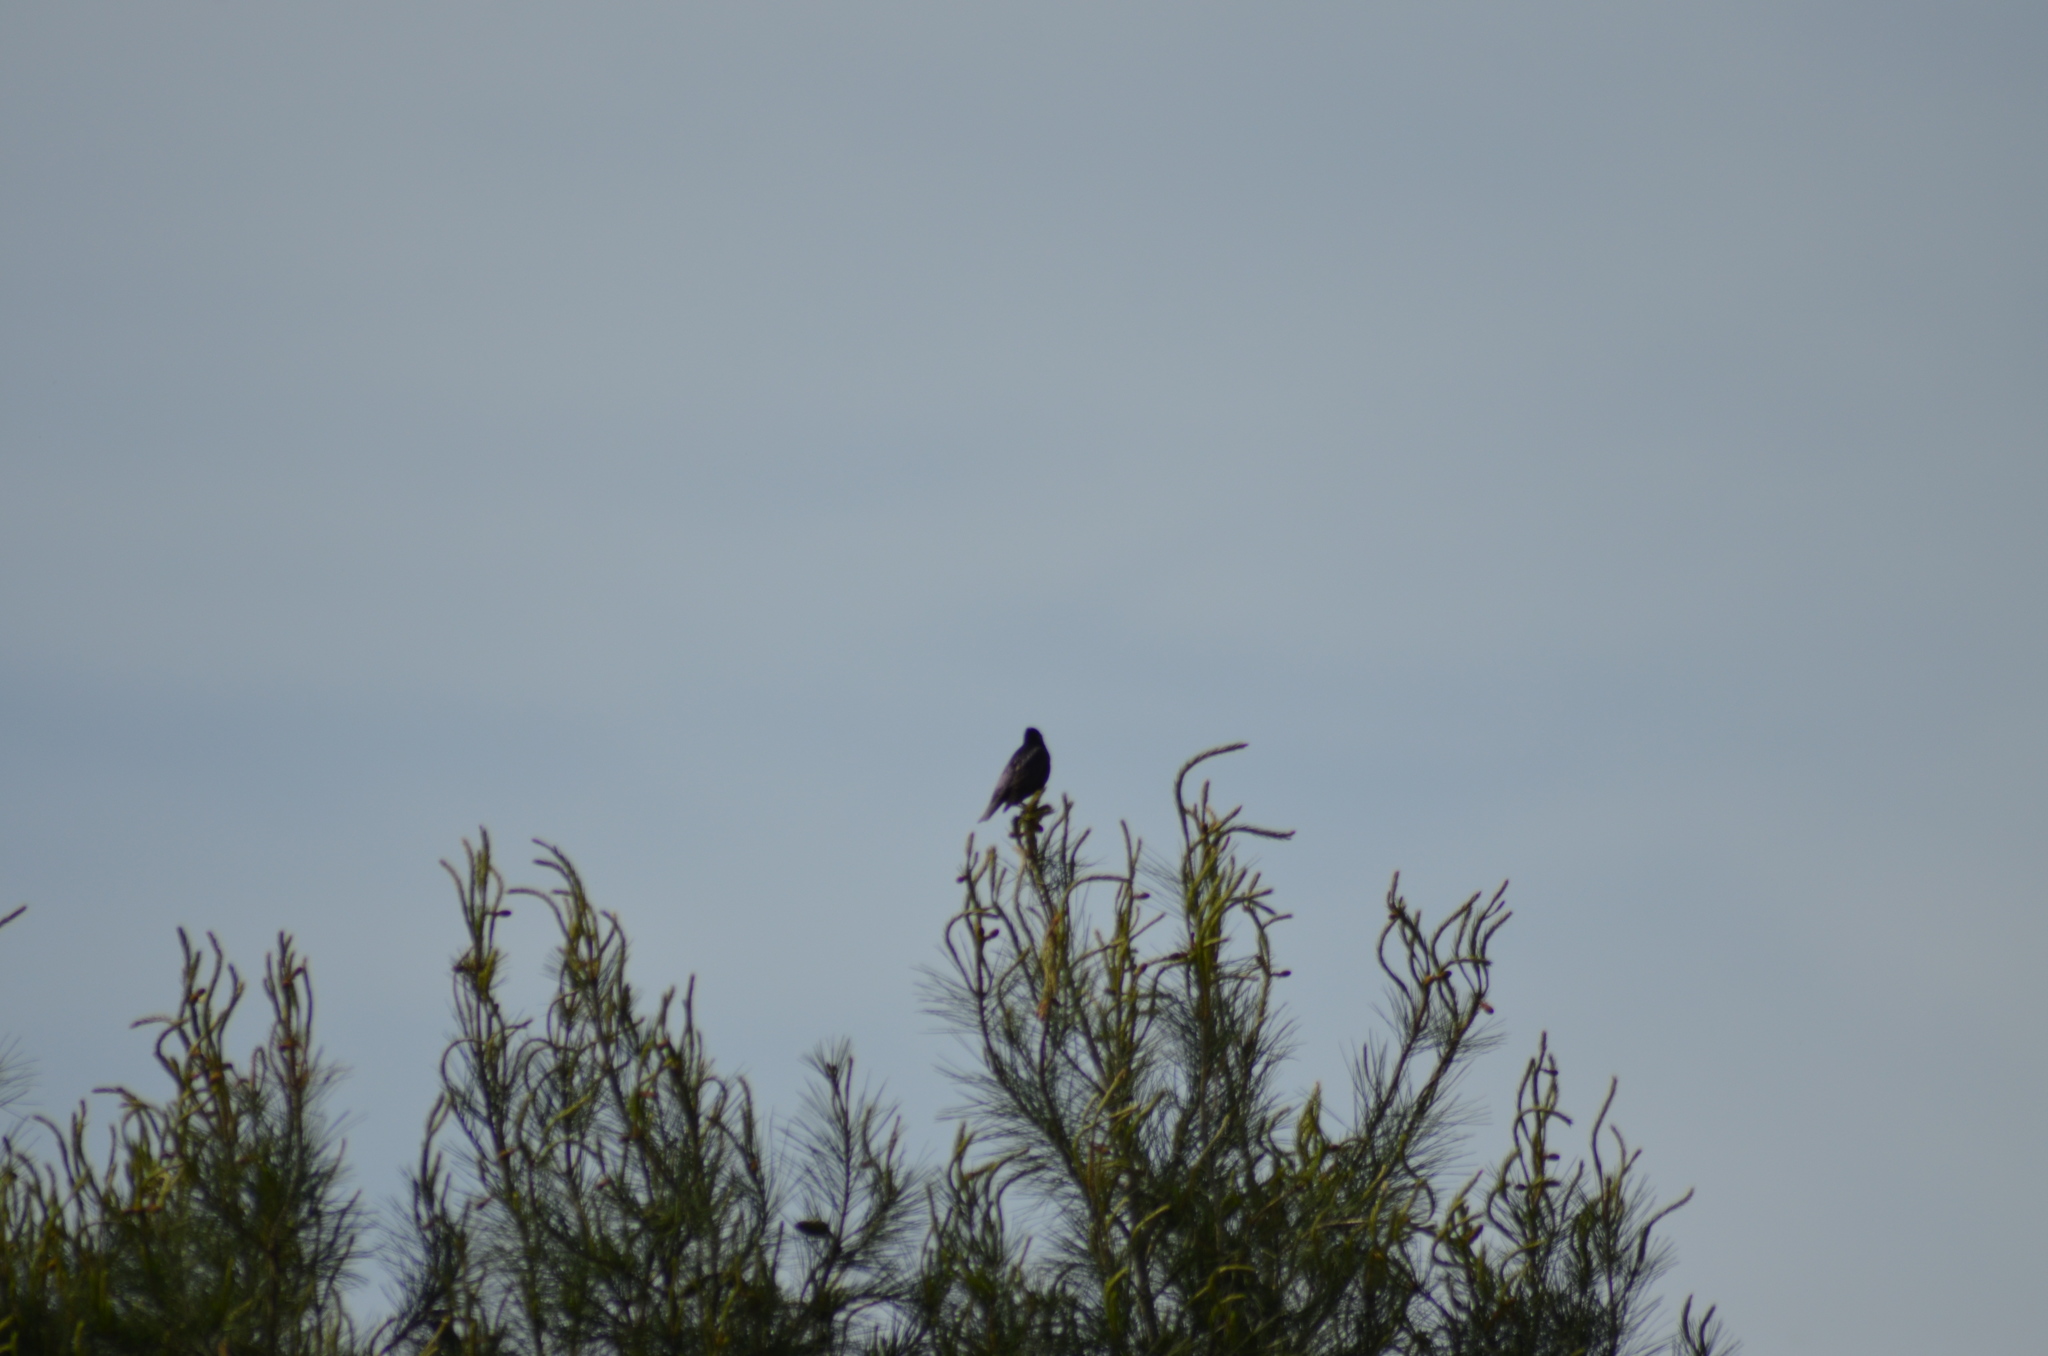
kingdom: Animalia
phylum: Chordata
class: Aves
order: Passeriformes
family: Sturnidae
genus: Sturnus
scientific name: Sturnus unicolor
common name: Spotless starling
